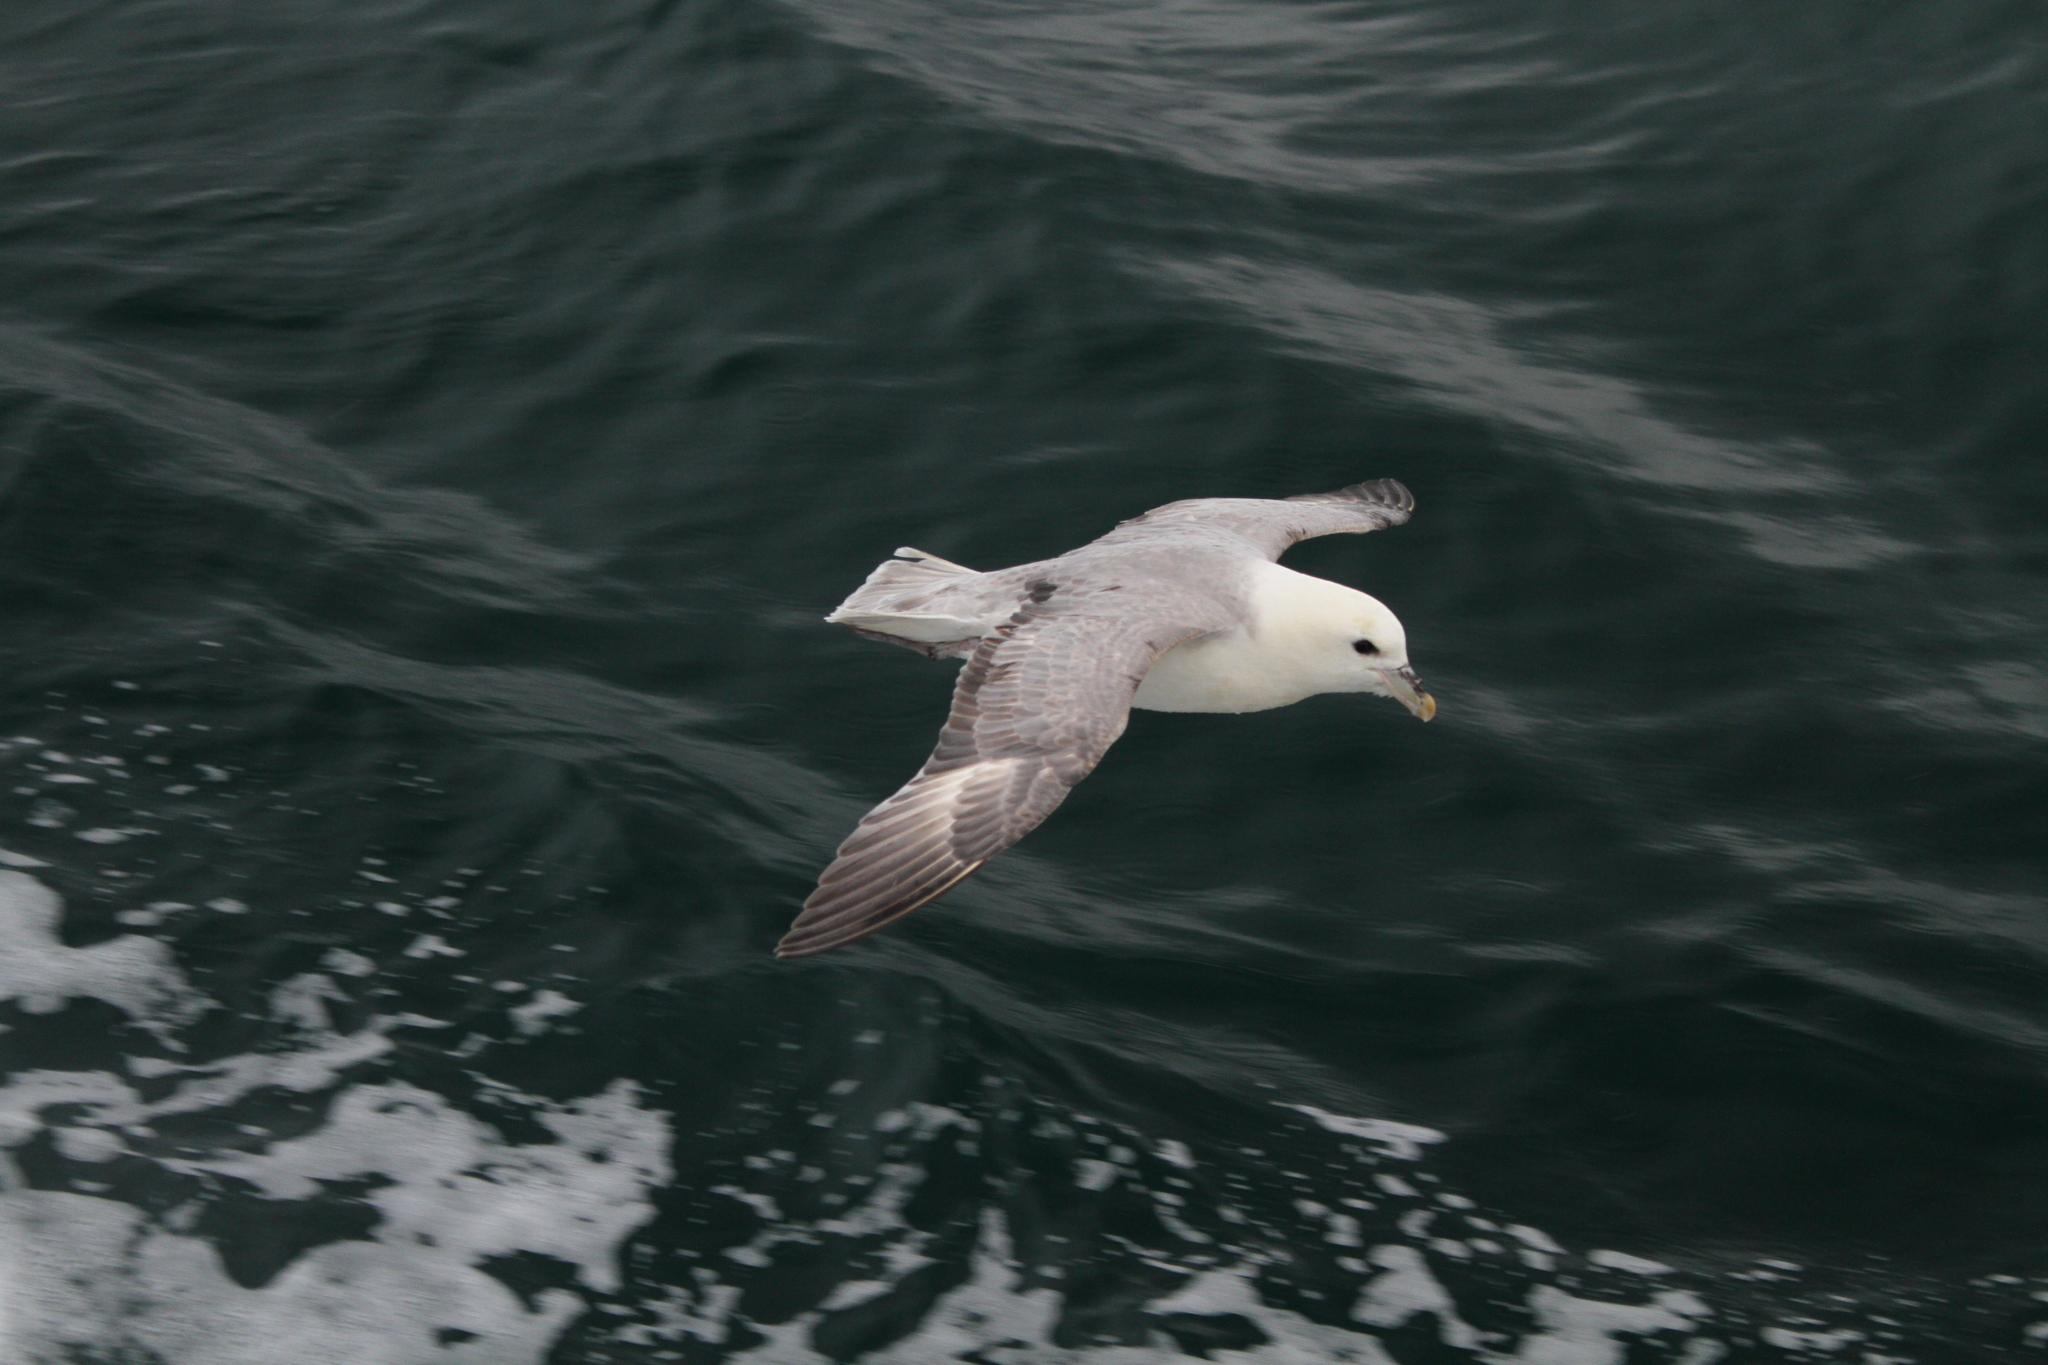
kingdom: Animalia
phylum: Chordata
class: Aves
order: Procellariiformes
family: Procellariidae
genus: Fulmarus
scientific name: Fulmarus glacialis
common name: Northern fulmar
